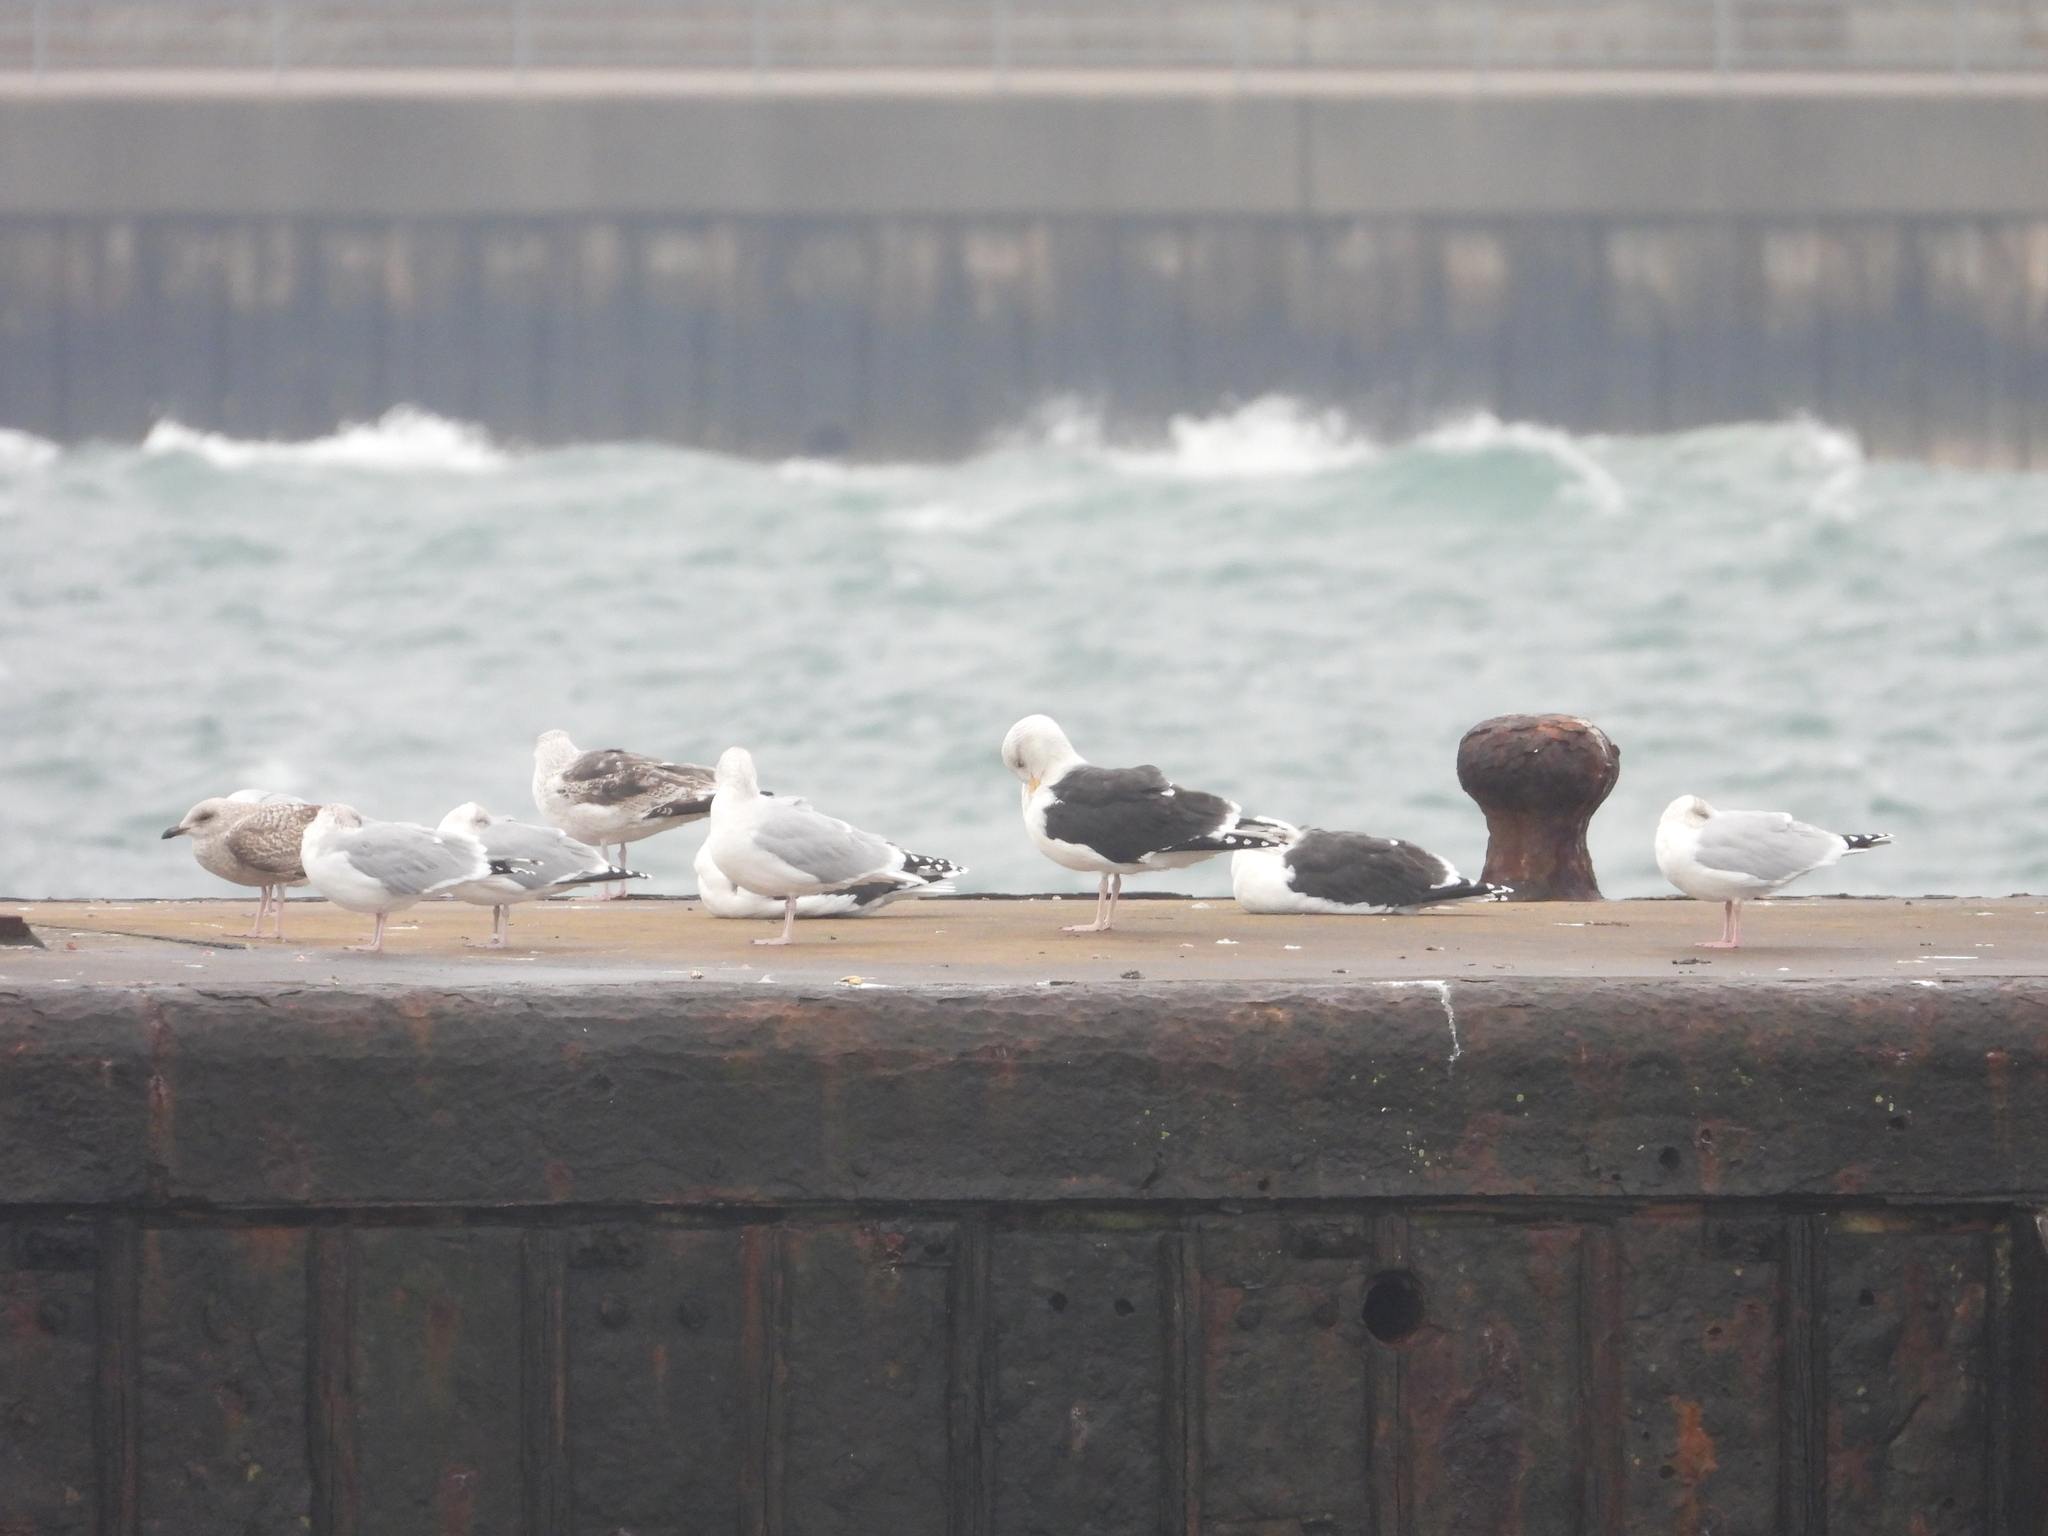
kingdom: Animalia
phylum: Chordata
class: Aves
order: Charadriiformes
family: Laridae
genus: Larus
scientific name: Larus marinus
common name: Great black-backed gull
